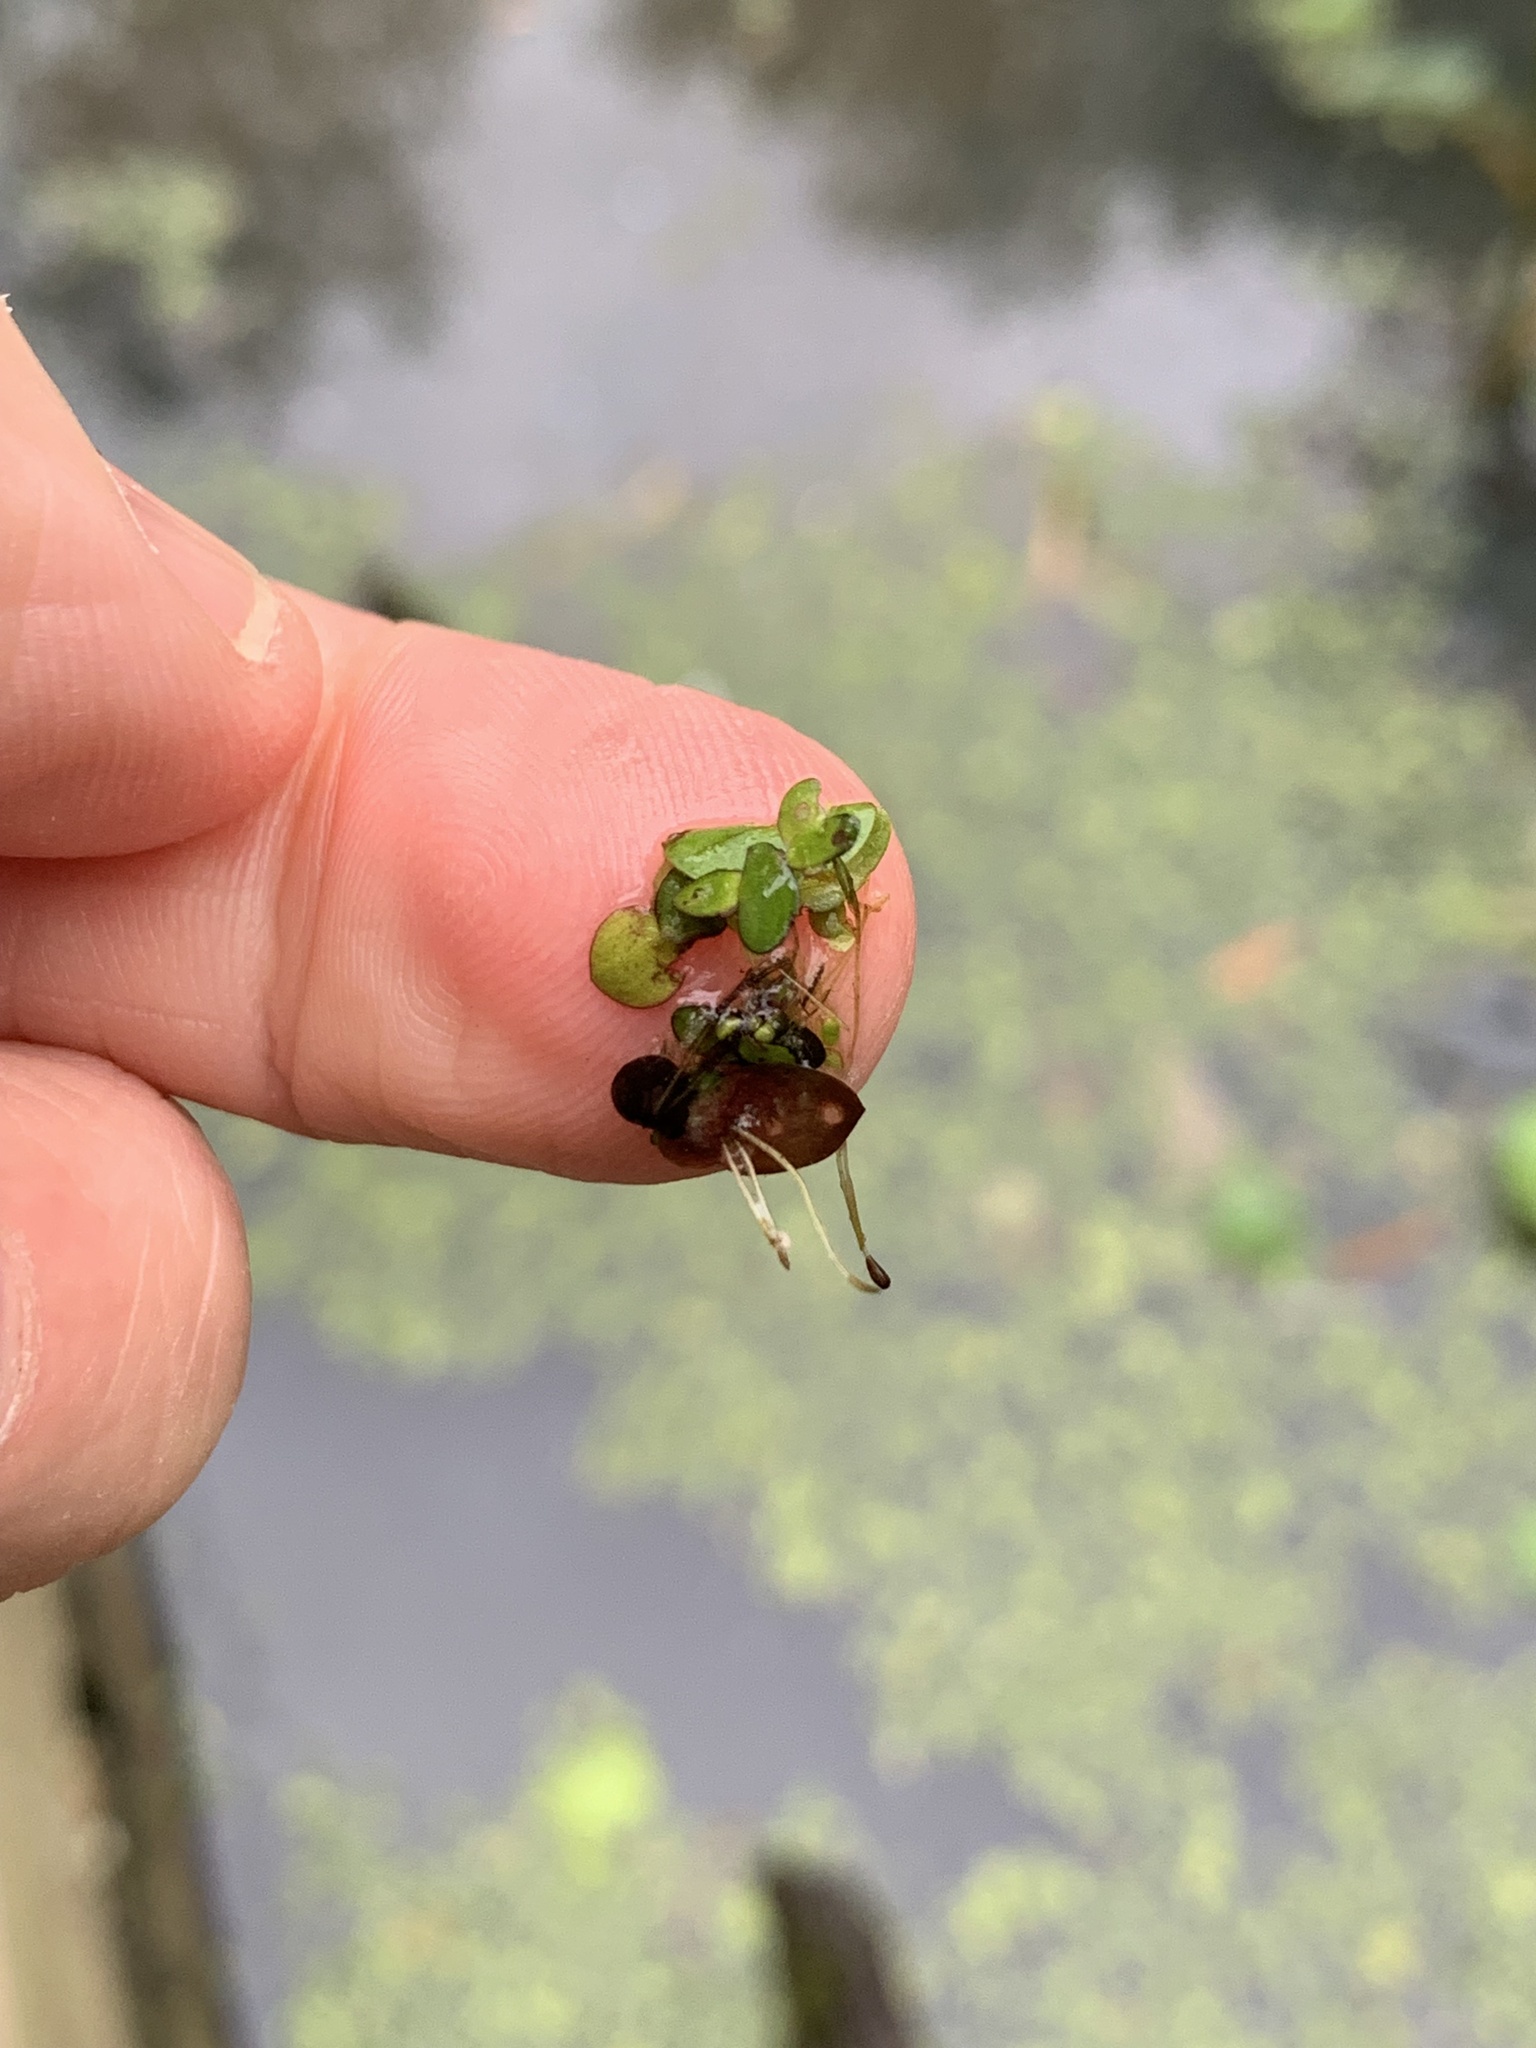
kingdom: Plantae
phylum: Tracheophyta
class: Liliopsida
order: Alismatales
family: Araceae
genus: Spirodela
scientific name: Spirodela polyrhiza
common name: Great duckweed
